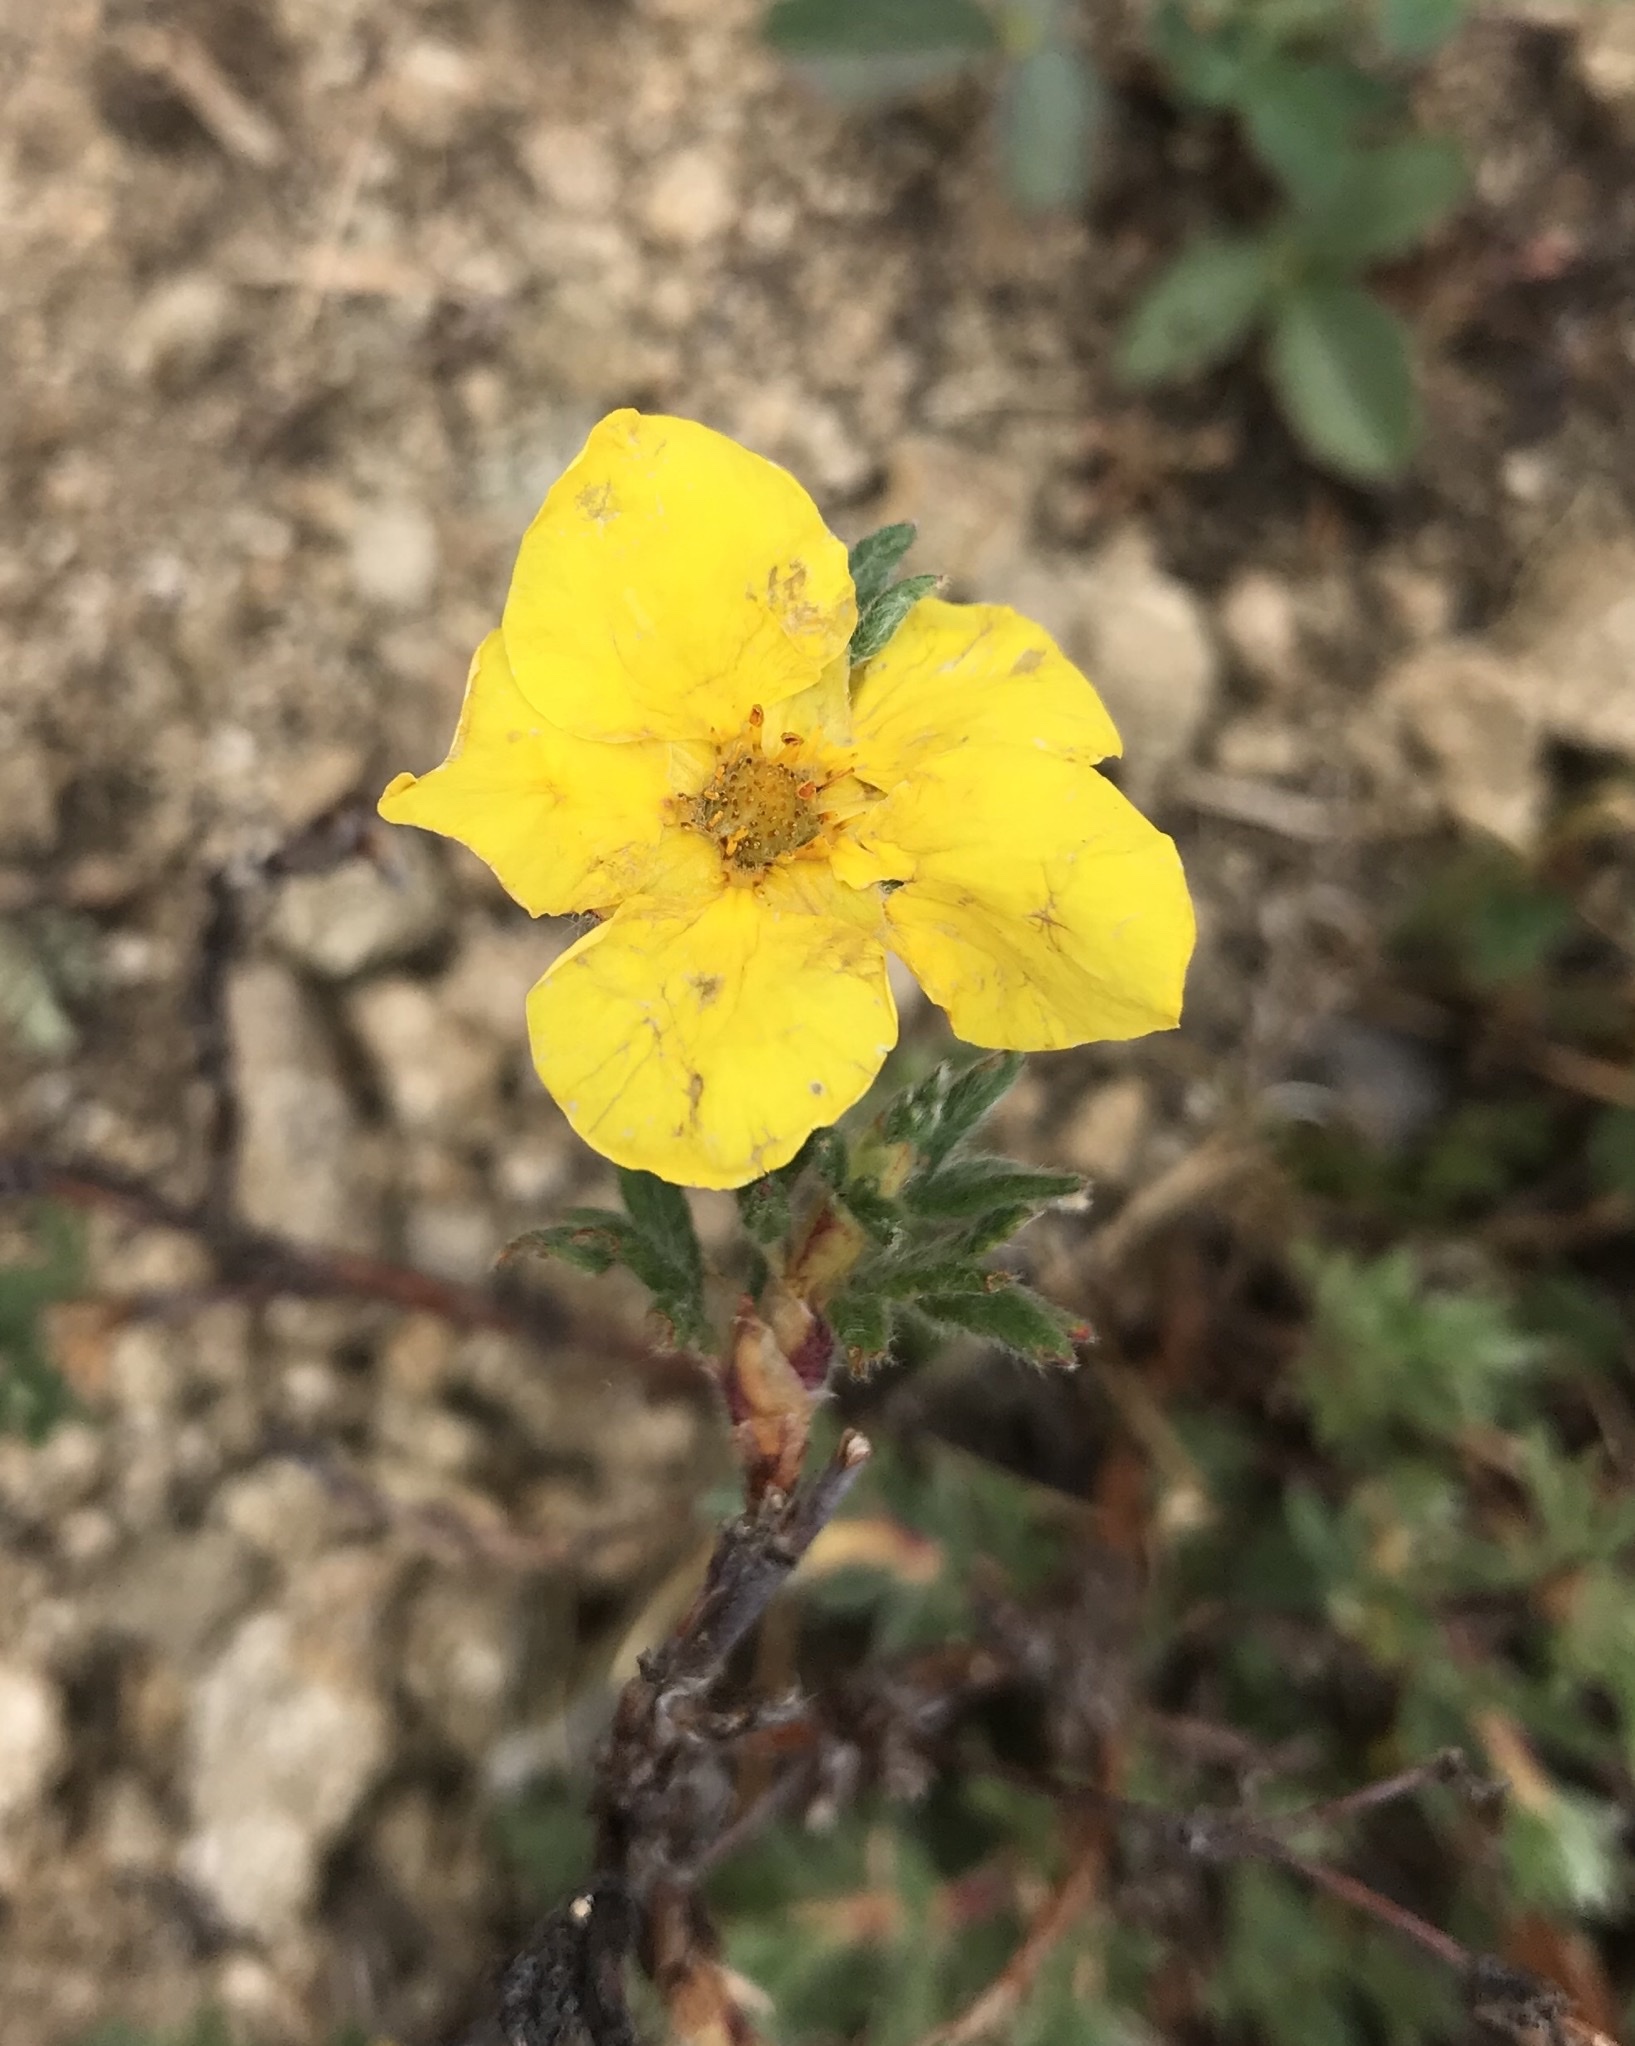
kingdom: Plantae
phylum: Tracheophyta
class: Magnoliopsida
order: Rosales
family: Rosaceae
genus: Dasiphora
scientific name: Dasiphora fruticosa
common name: Shrubby cinquefoil
